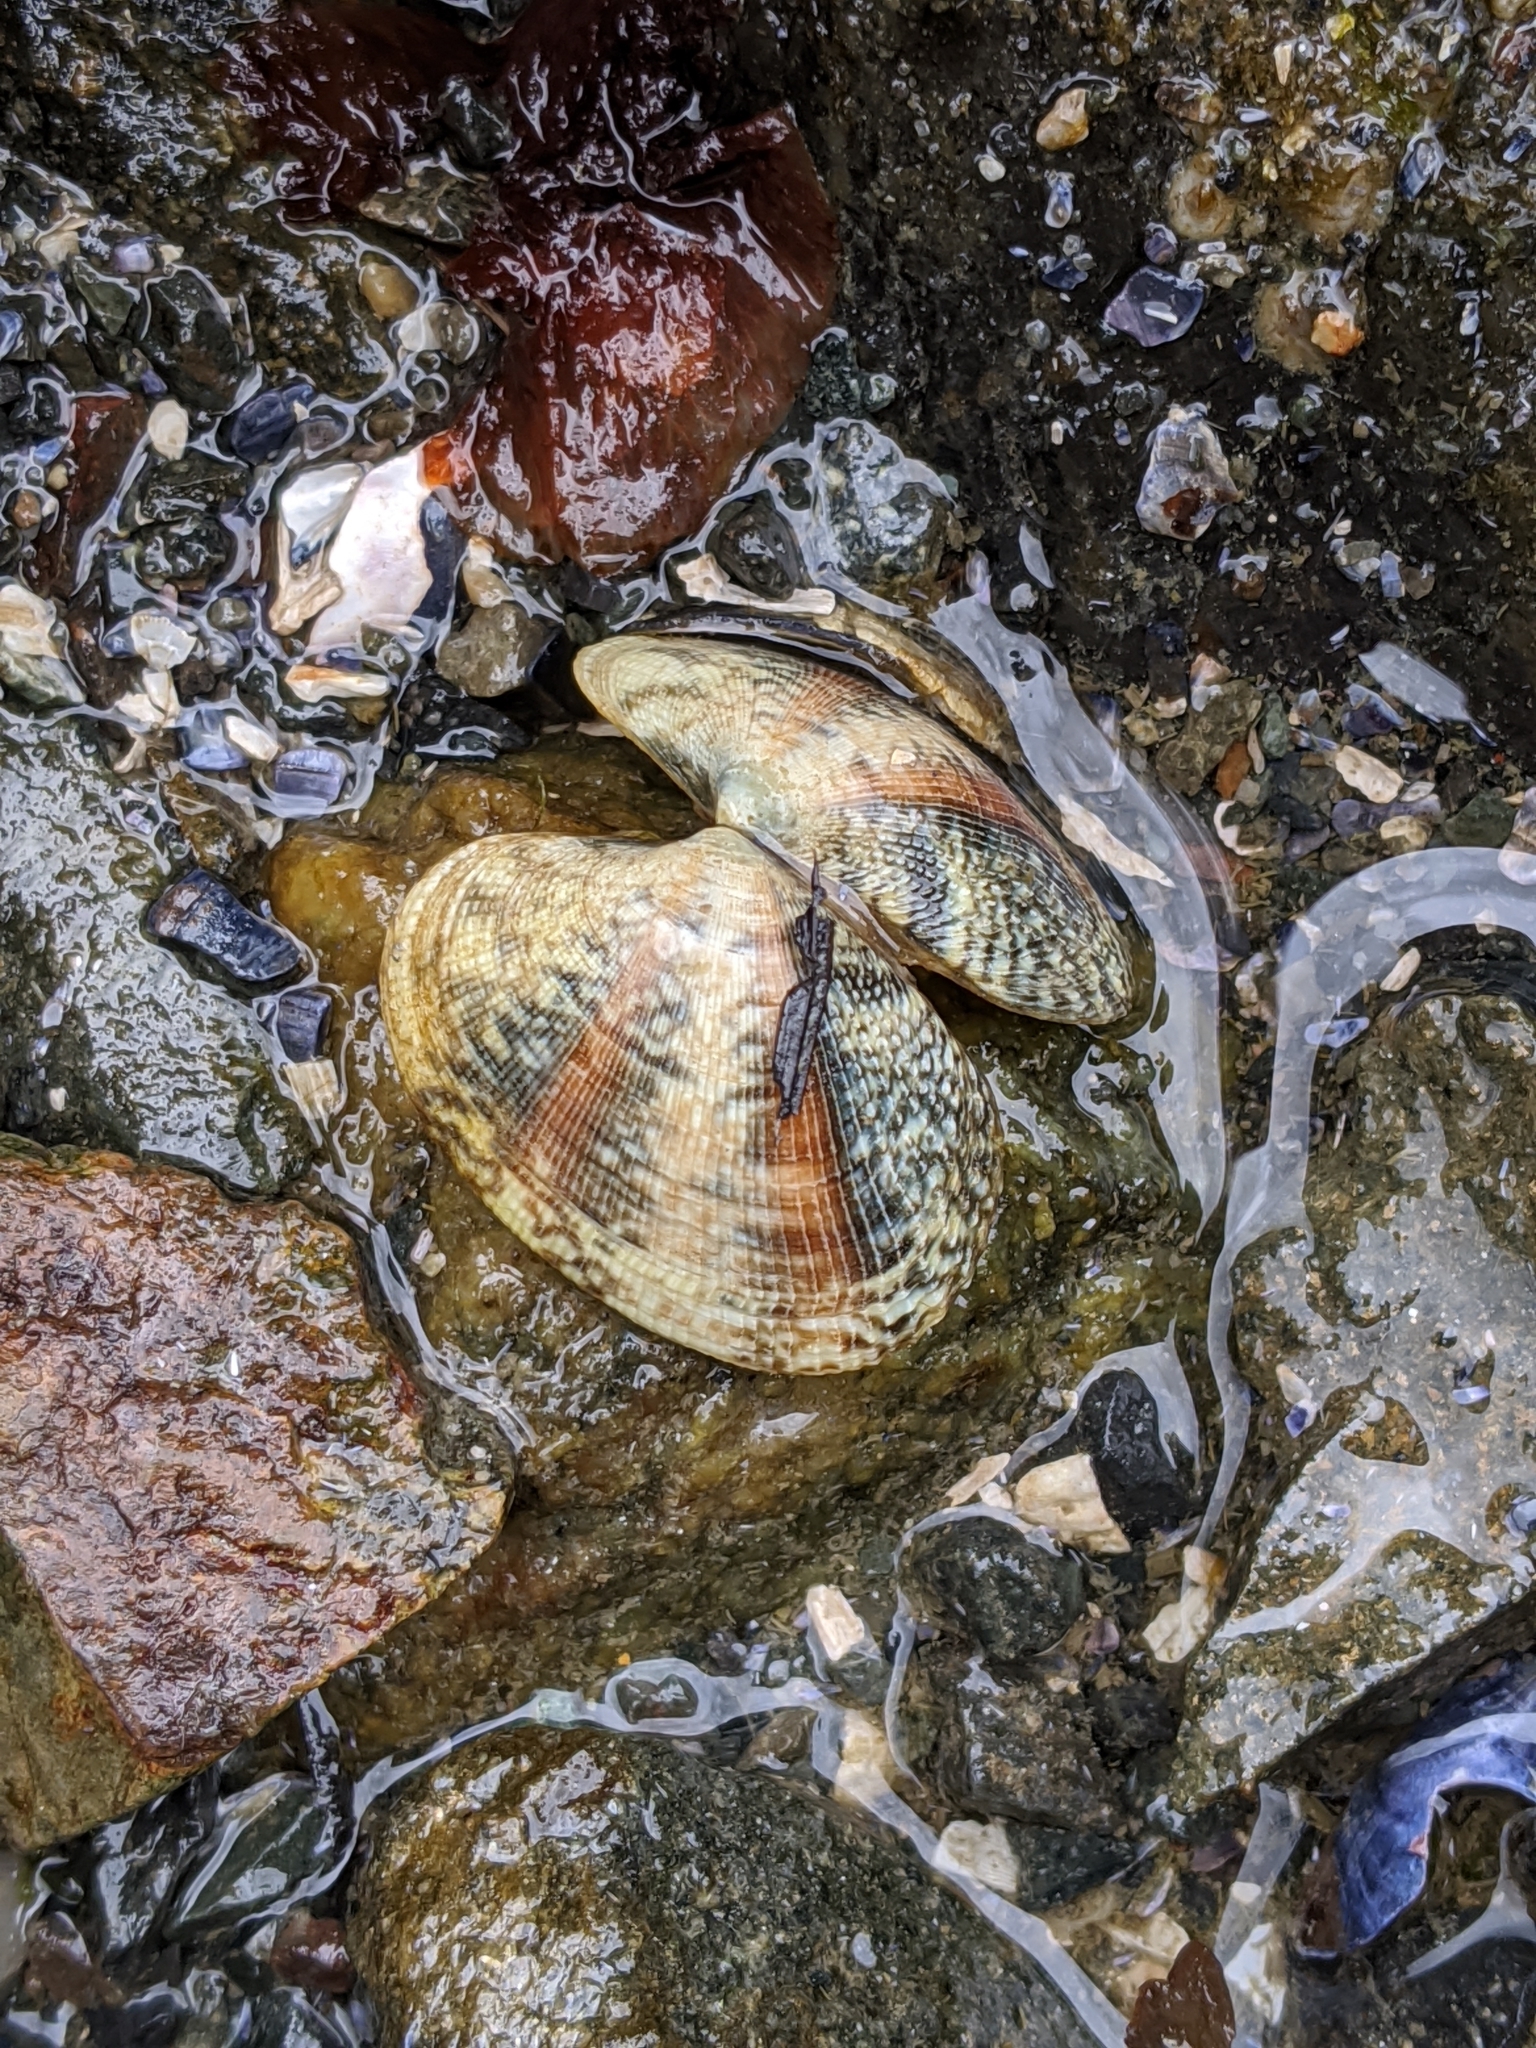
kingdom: Animalia
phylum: Mollusca
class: Bivalvia
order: Venerida
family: Veneridae
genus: Ruditapes
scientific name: Ruditapes philippinarum
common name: Manila clam
